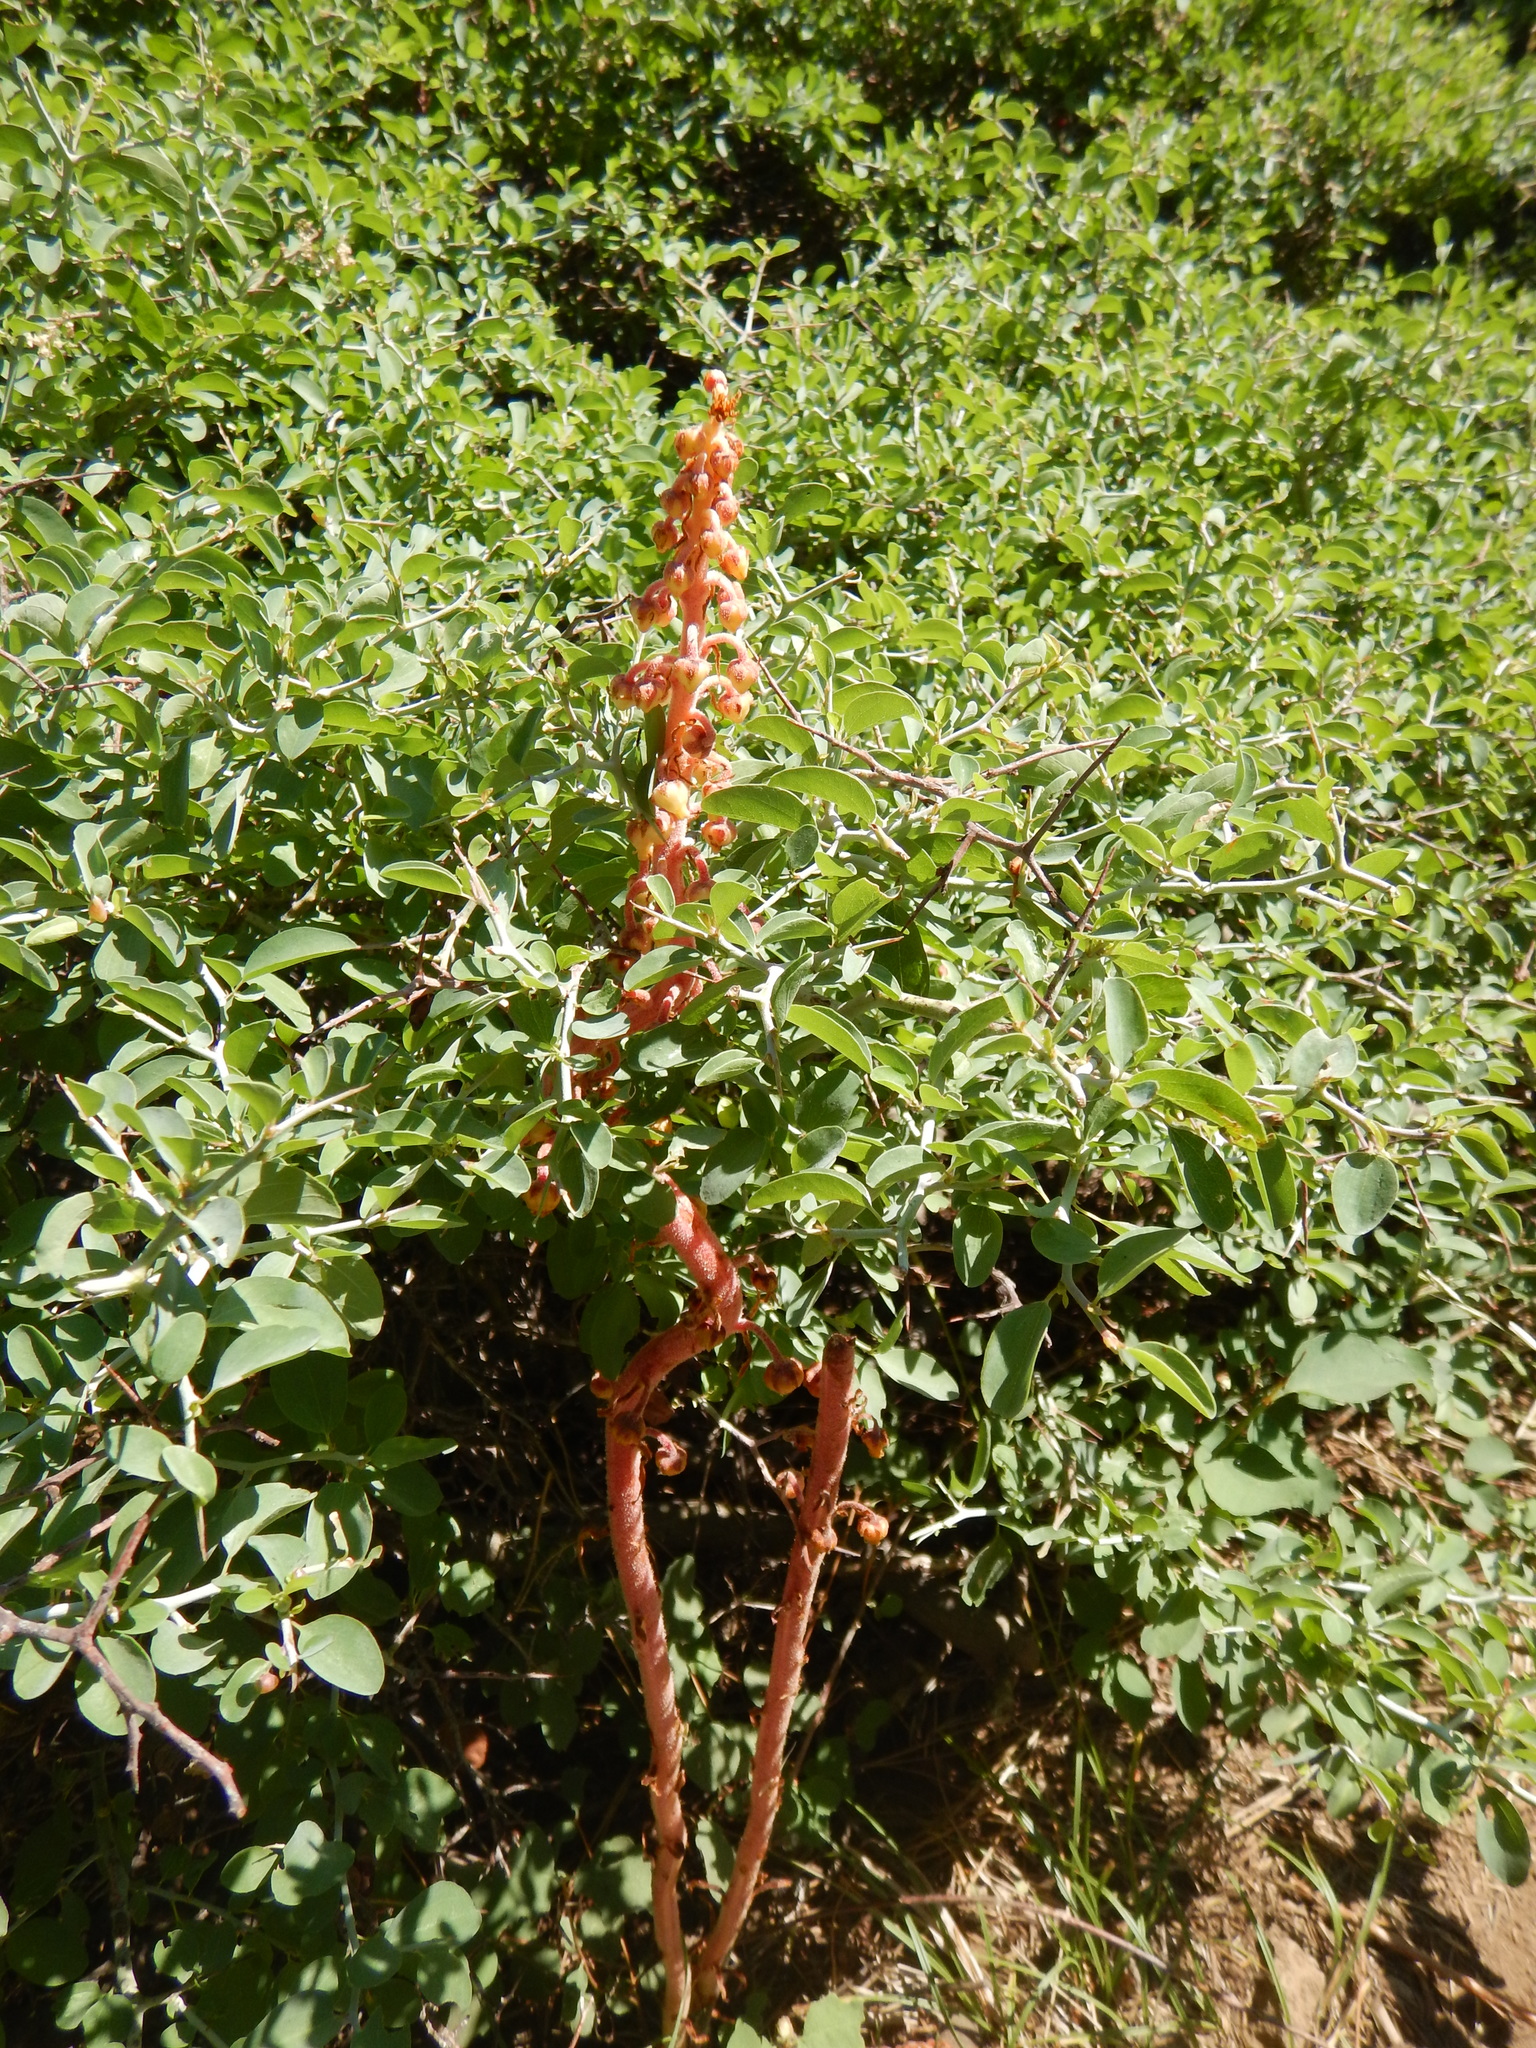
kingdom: Plantae
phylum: Tracheophyta
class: Magnoliopsida
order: Ericales
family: Ericaceae
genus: Pterospora
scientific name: Pterospora andromedea
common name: Giant bird's-nest
